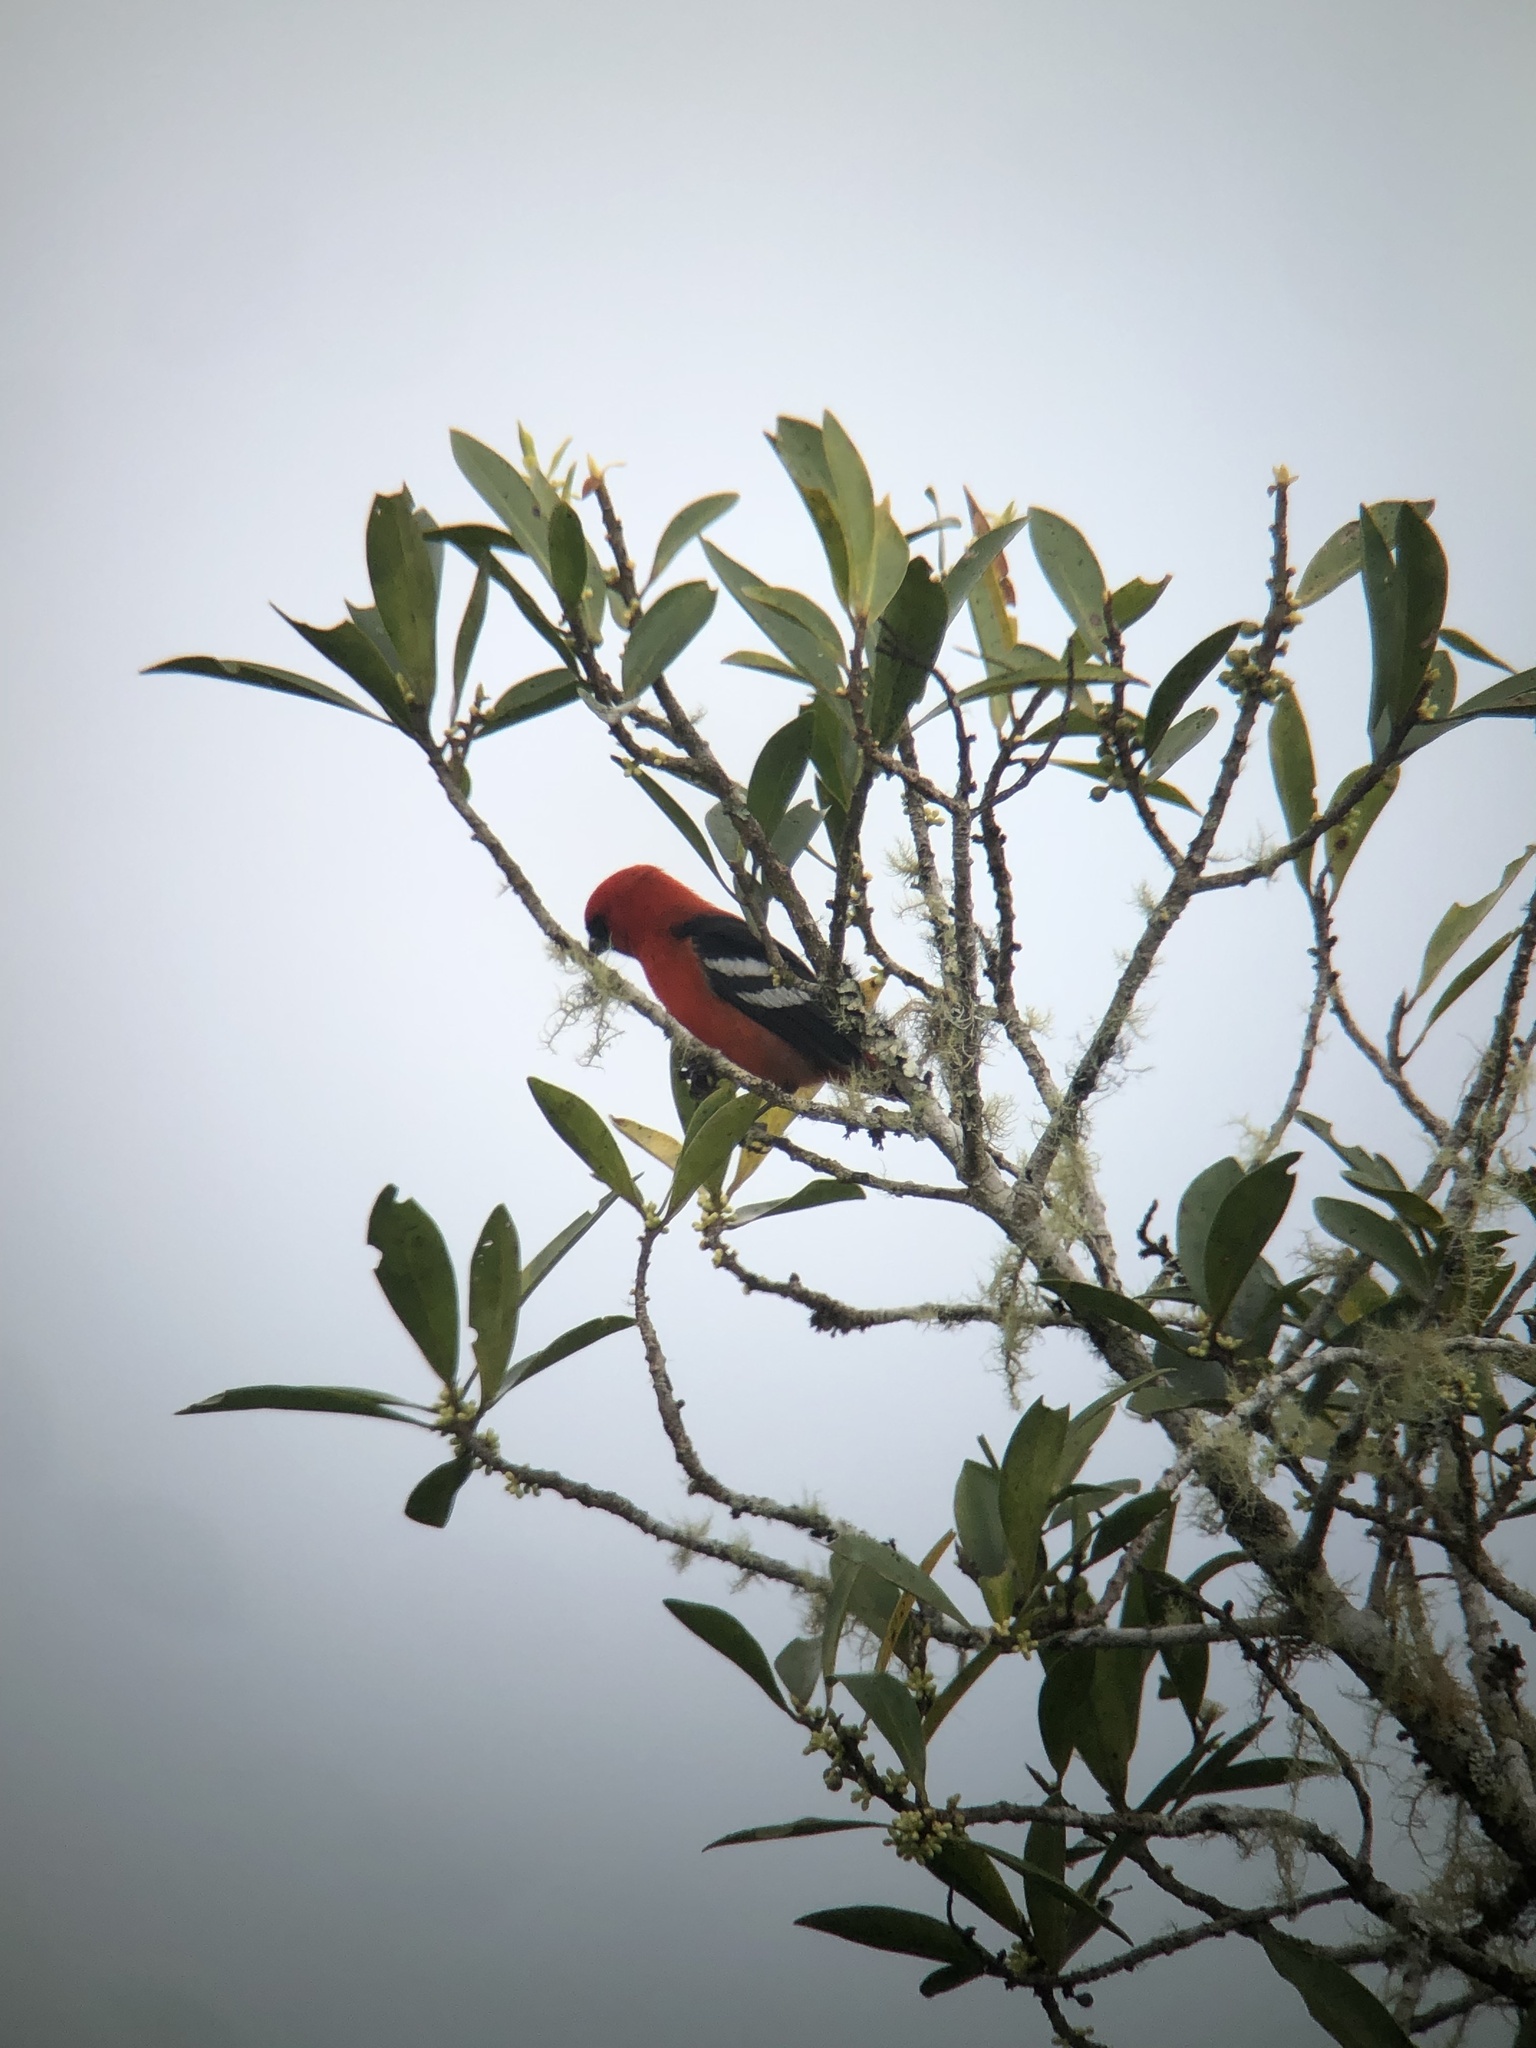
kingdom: Animalia
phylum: Chordata
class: Aves
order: Passeriformes
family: Cardinalidae
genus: Piranga
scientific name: Piranga leucoptera
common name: White-winged tanager
